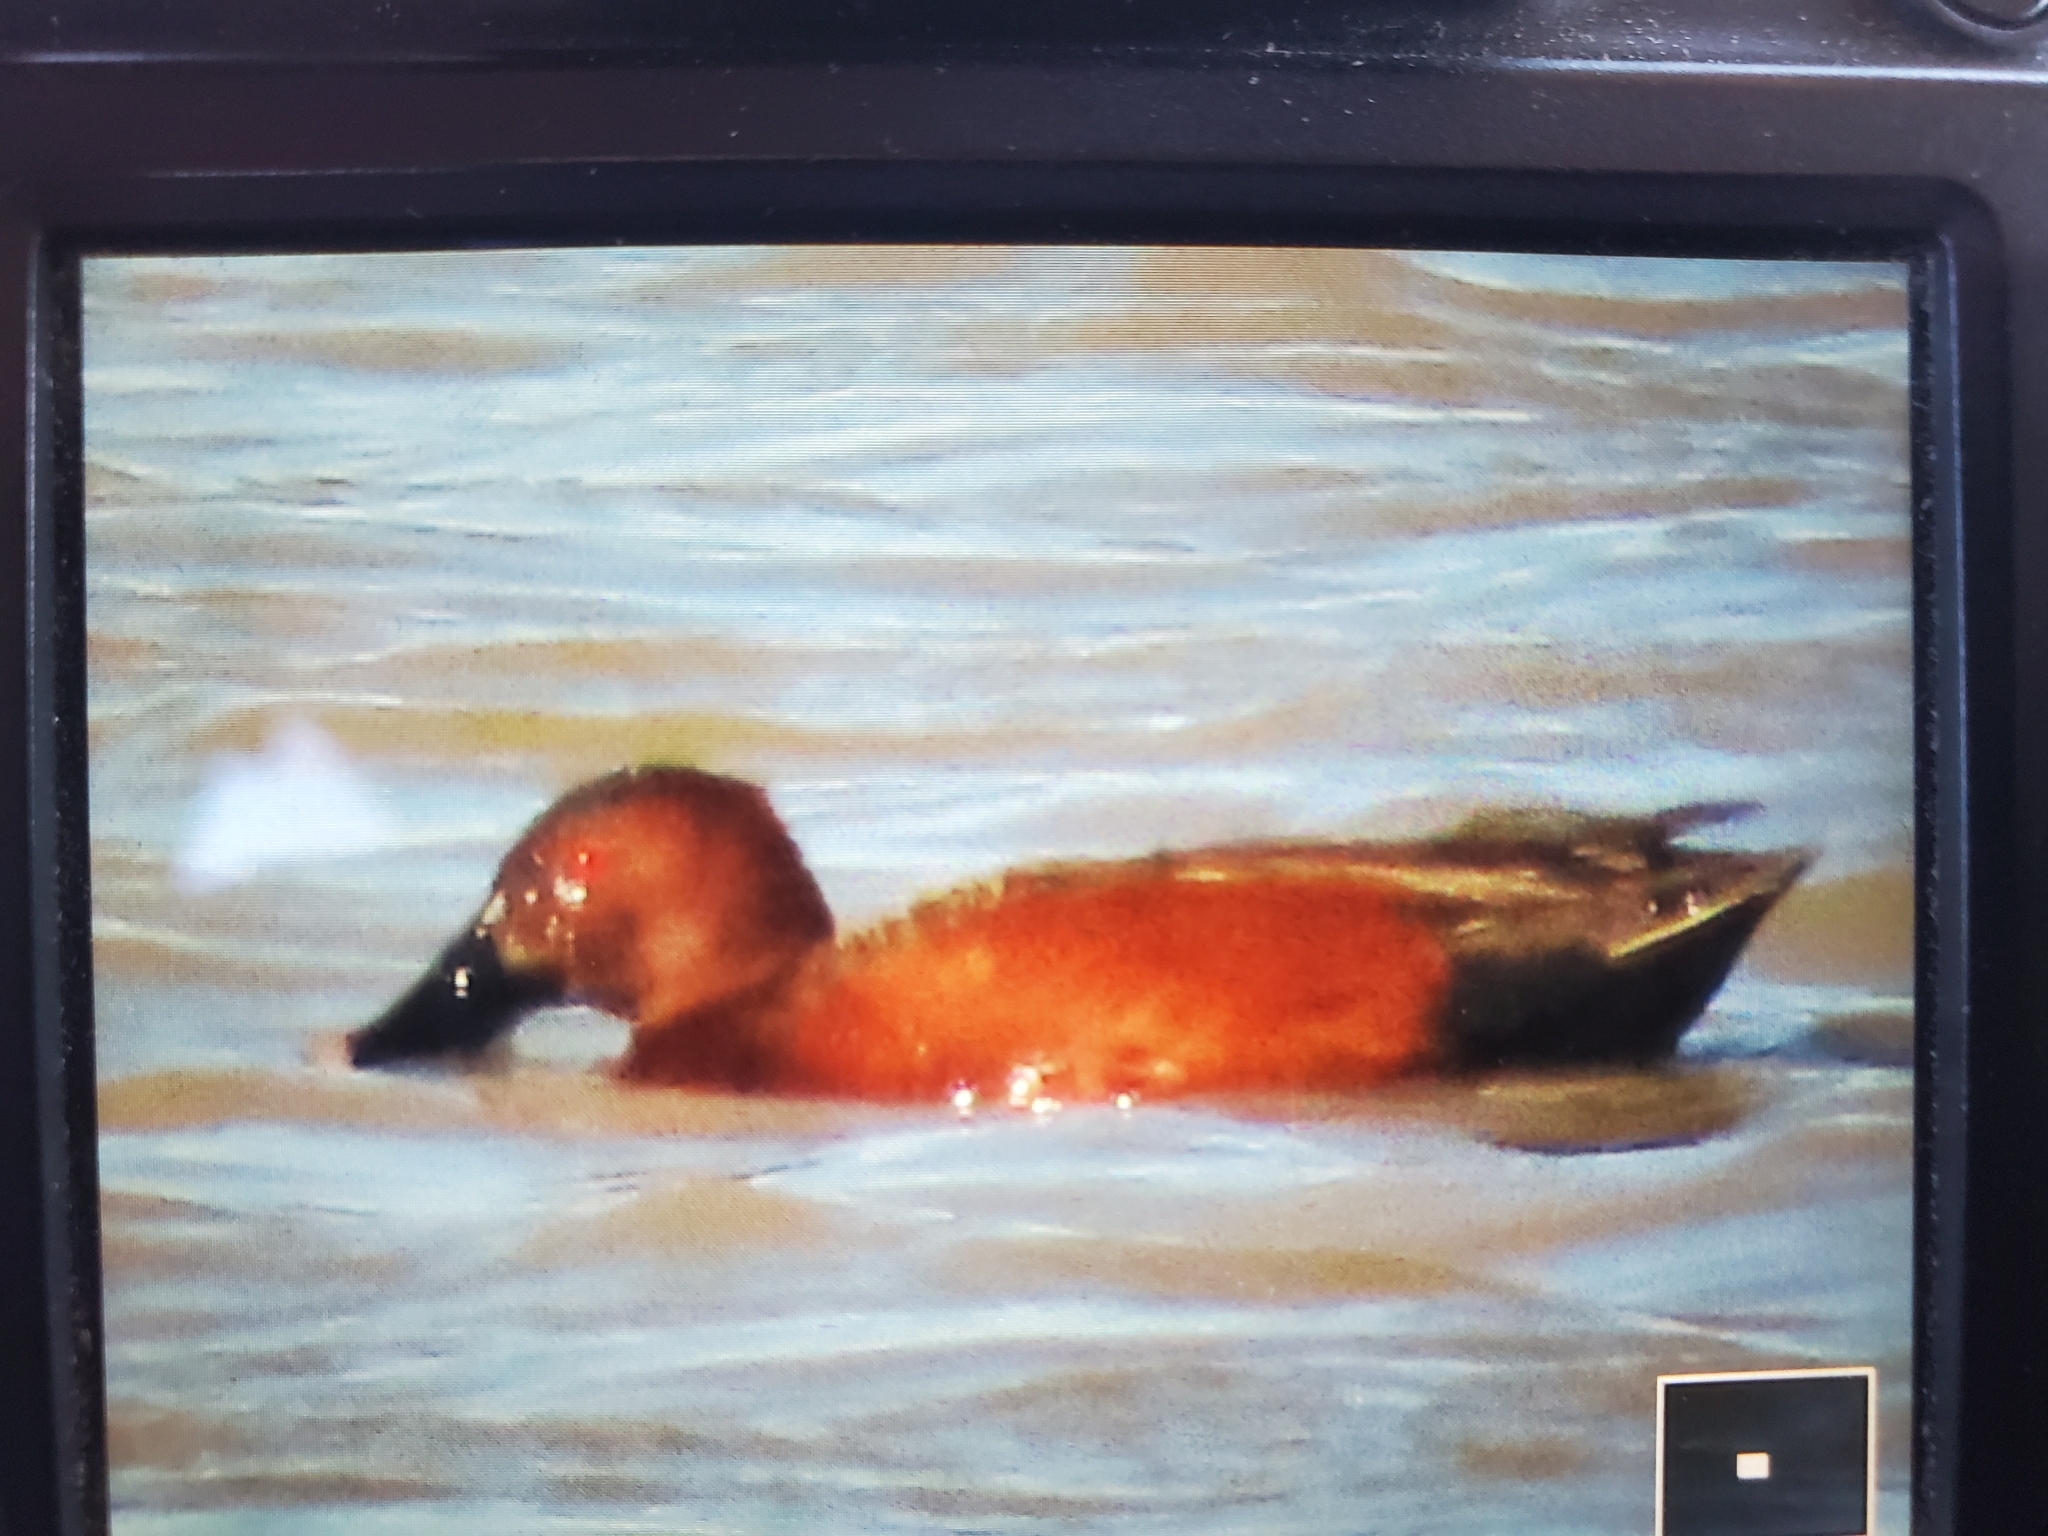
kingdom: Animalia
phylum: Chordata
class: Aves
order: Anseriformes
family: Anatidae
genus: Spatula
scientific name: Spatula cyanoptera
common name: Cinnamon teal
